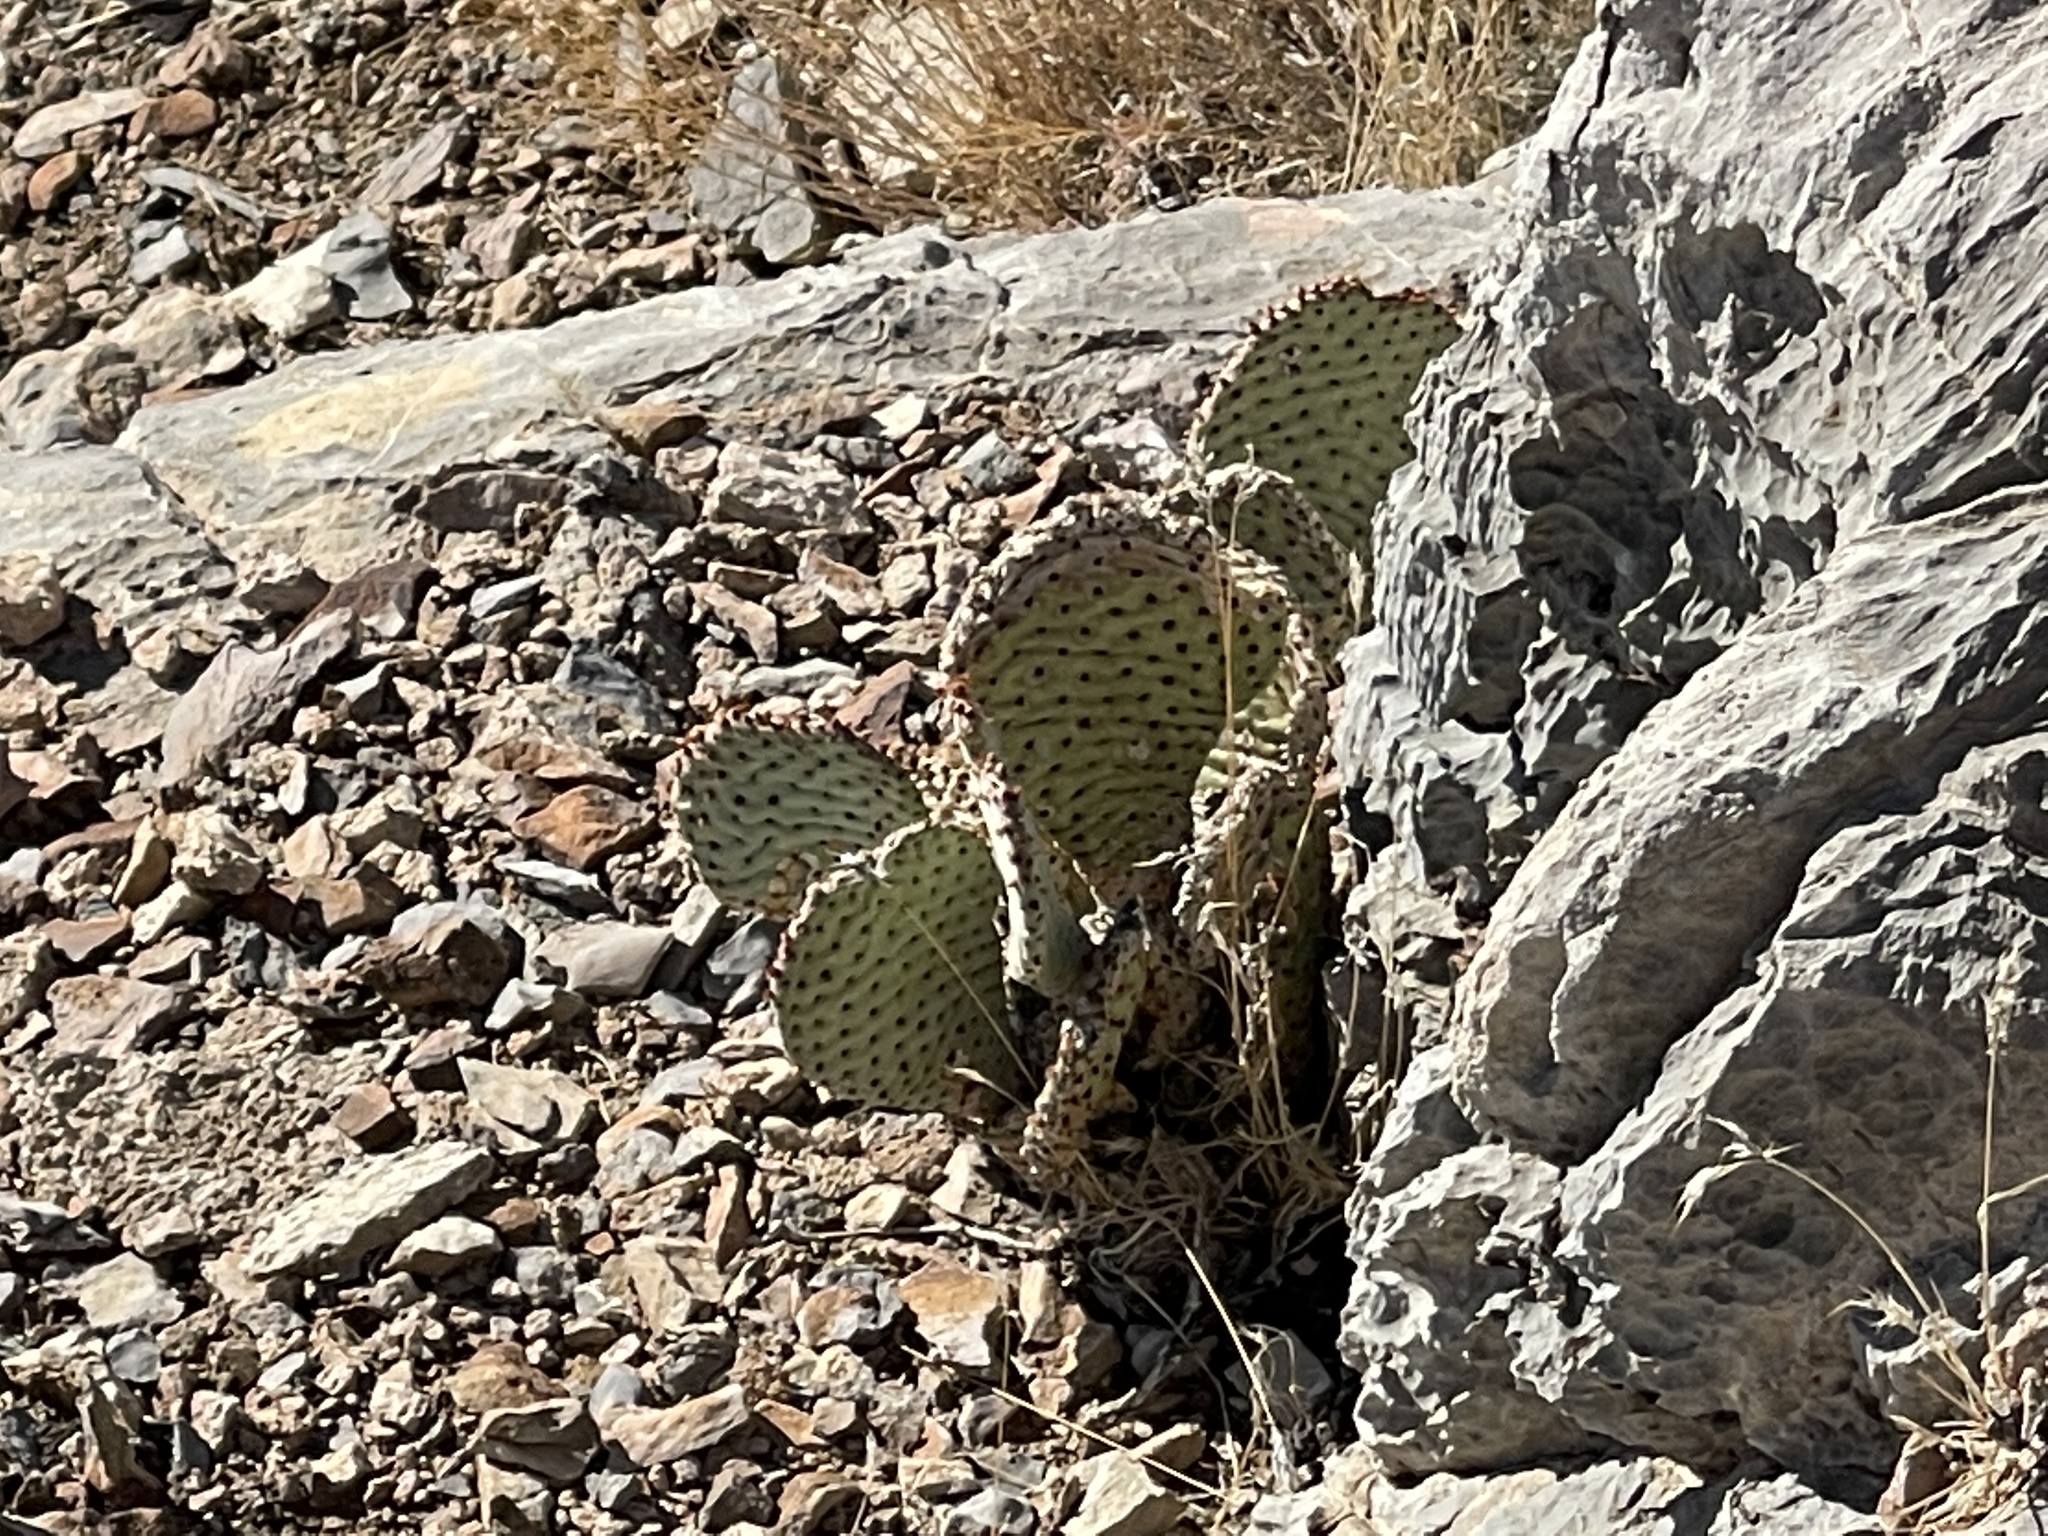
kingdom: Plantae
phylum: Tracheophyta
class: Magnoliopsida
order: Caryophyllales
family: Cactaceae
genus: Opuntia
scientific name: Opuntia basilaris
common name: Beavertail prickly-pear
